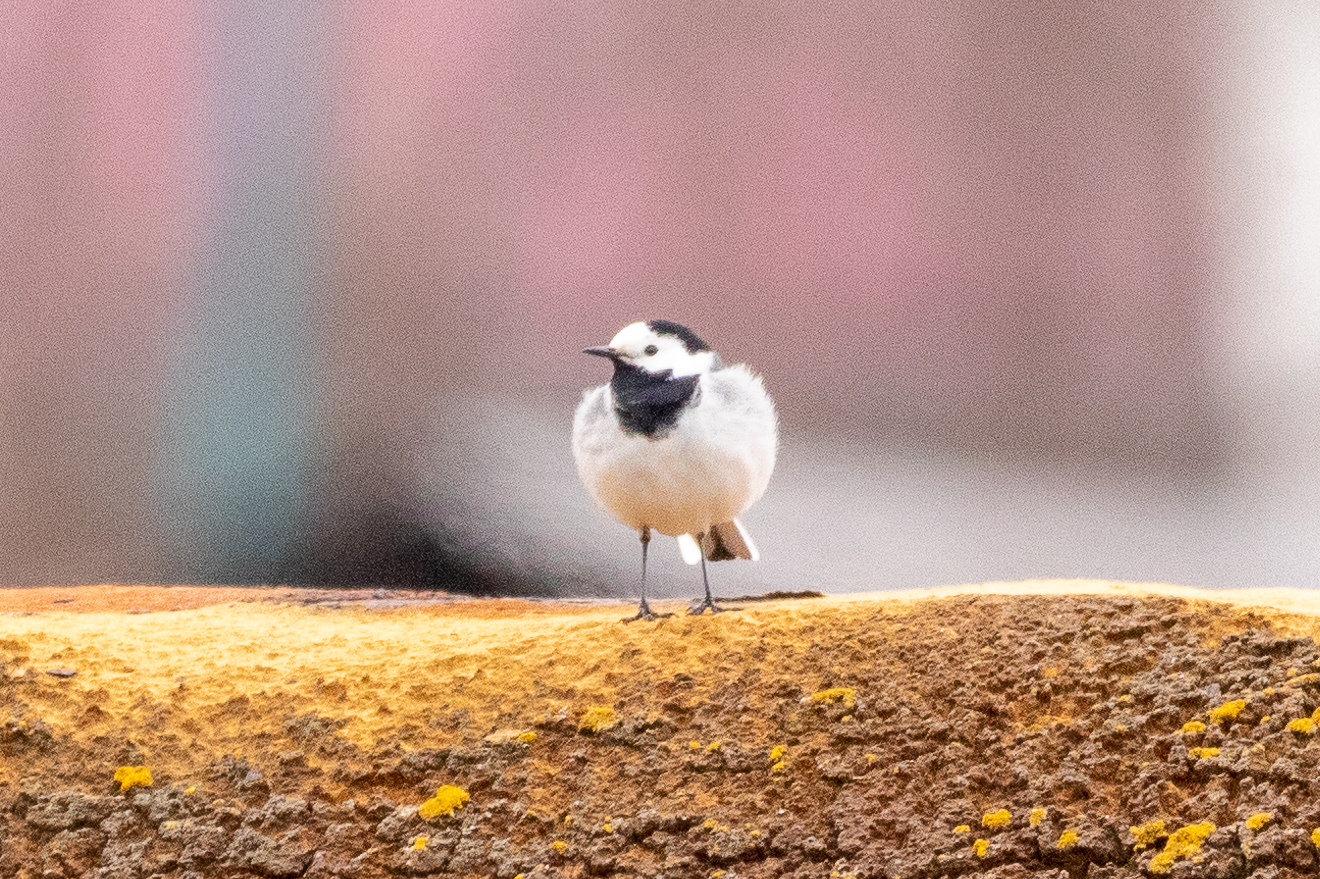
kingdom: Animalia
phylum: Chordata
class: Aves
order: Passeriformes
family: Motacillidae
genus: Motacilla
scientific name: Motacilla alba
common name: White wagtail
